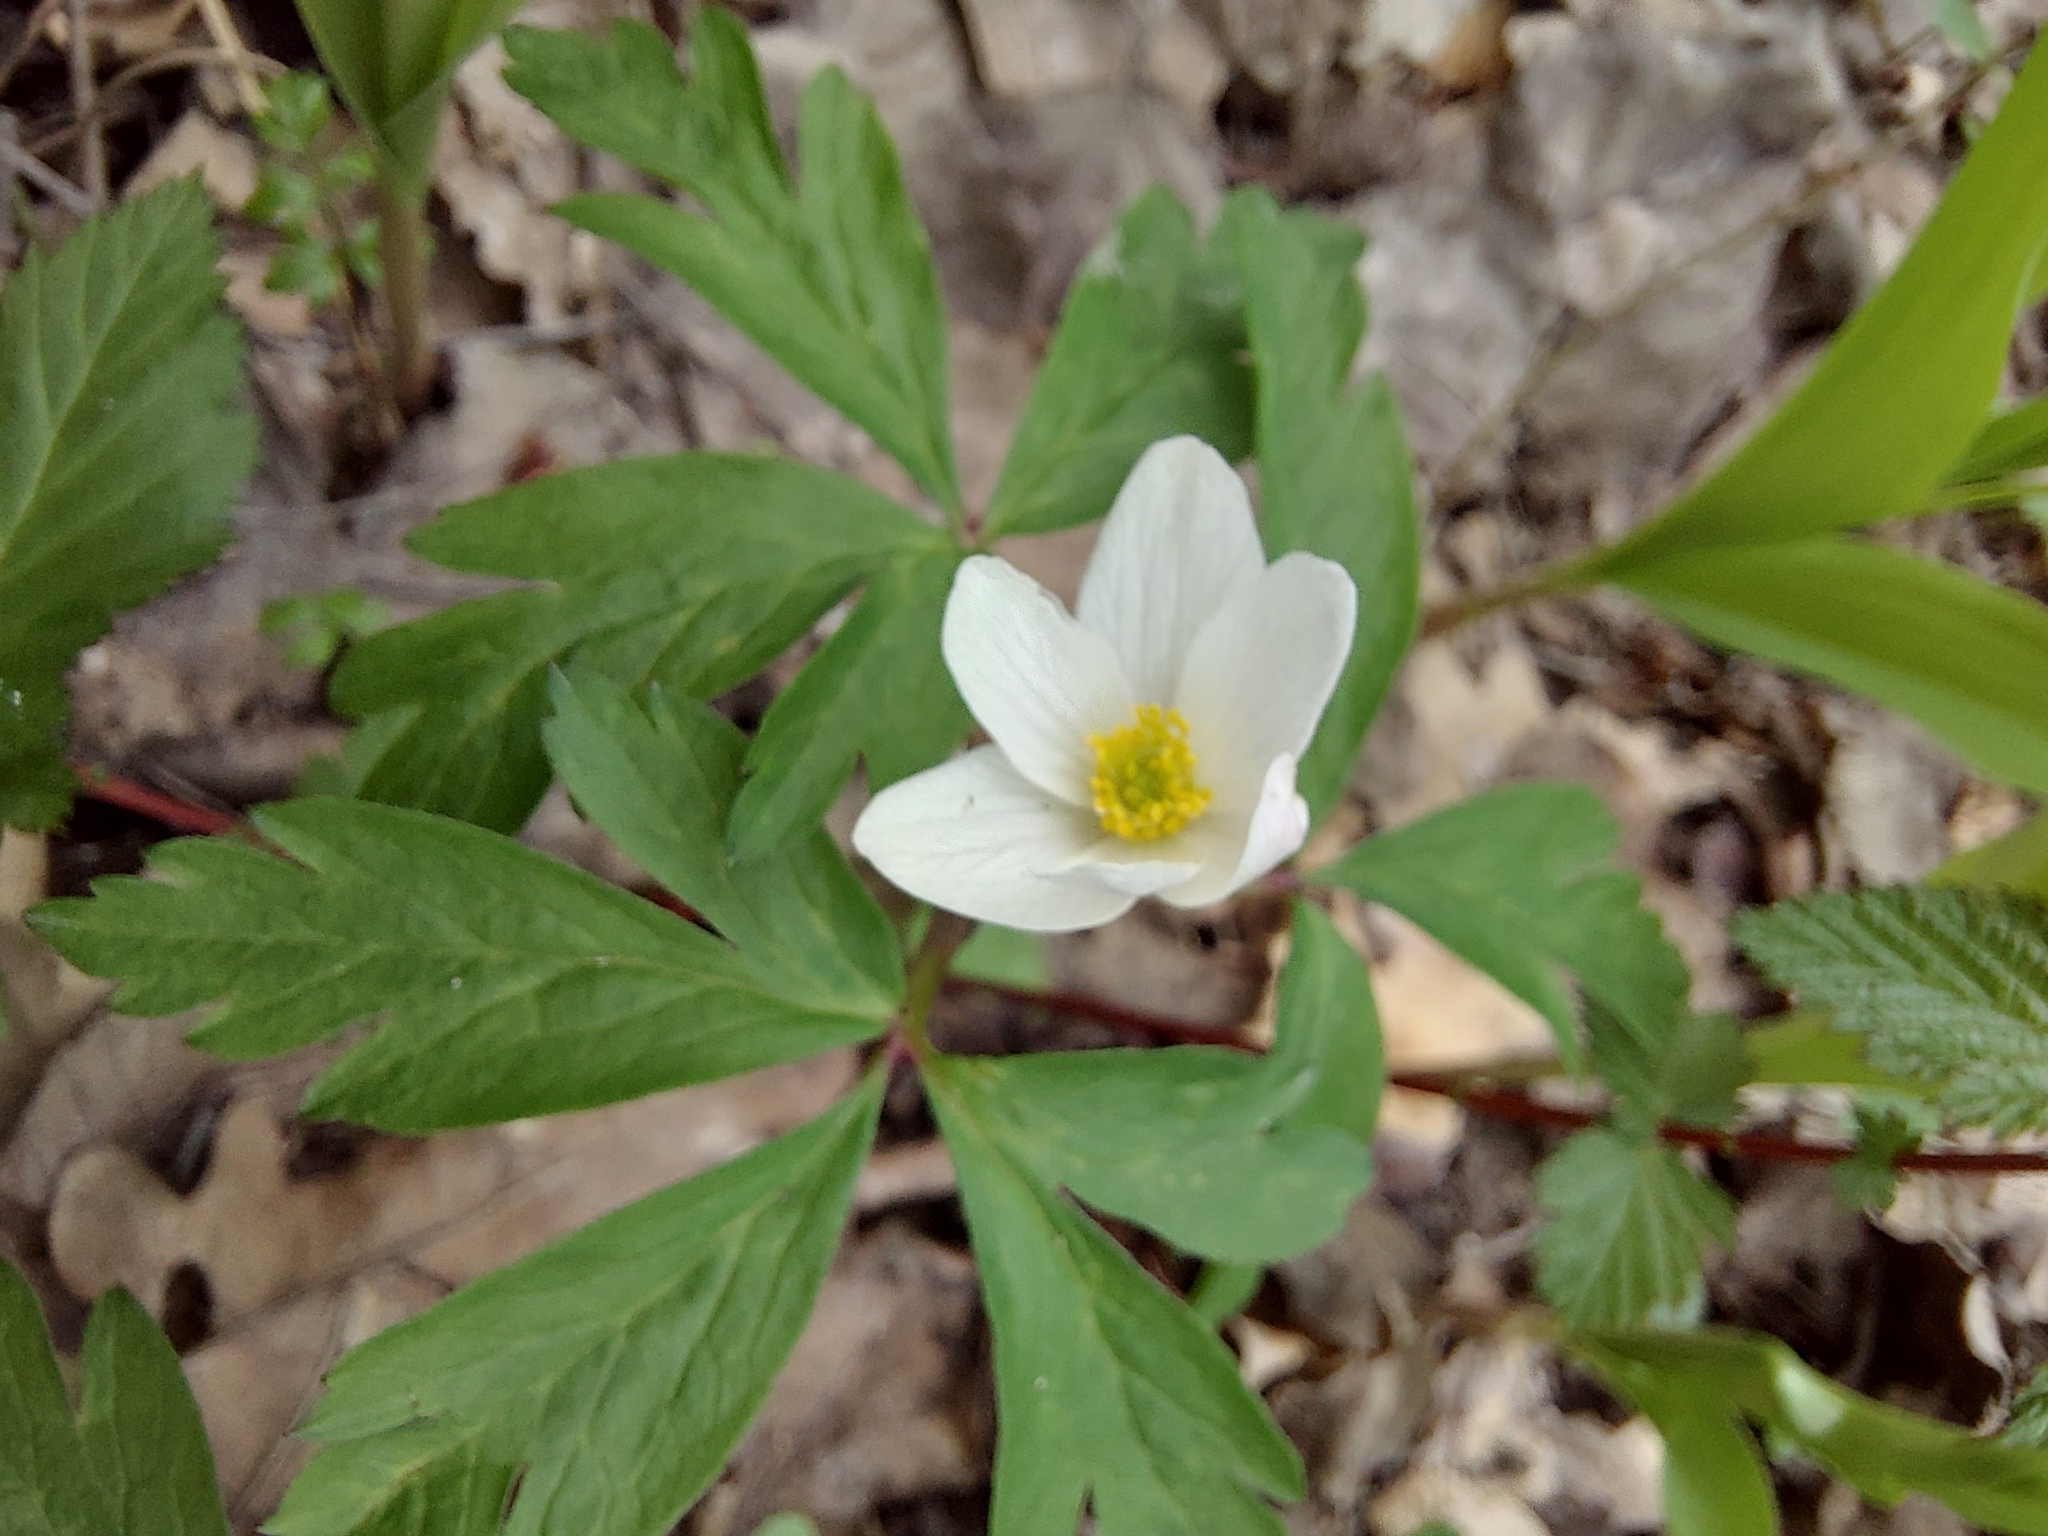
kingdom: Plantae
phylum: Tracheophyta
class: Magnoliopsida
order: Ranunculales
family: Ranunculaceae
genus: Anemone
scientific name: Anemone nemorosa
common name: Wood anemone
